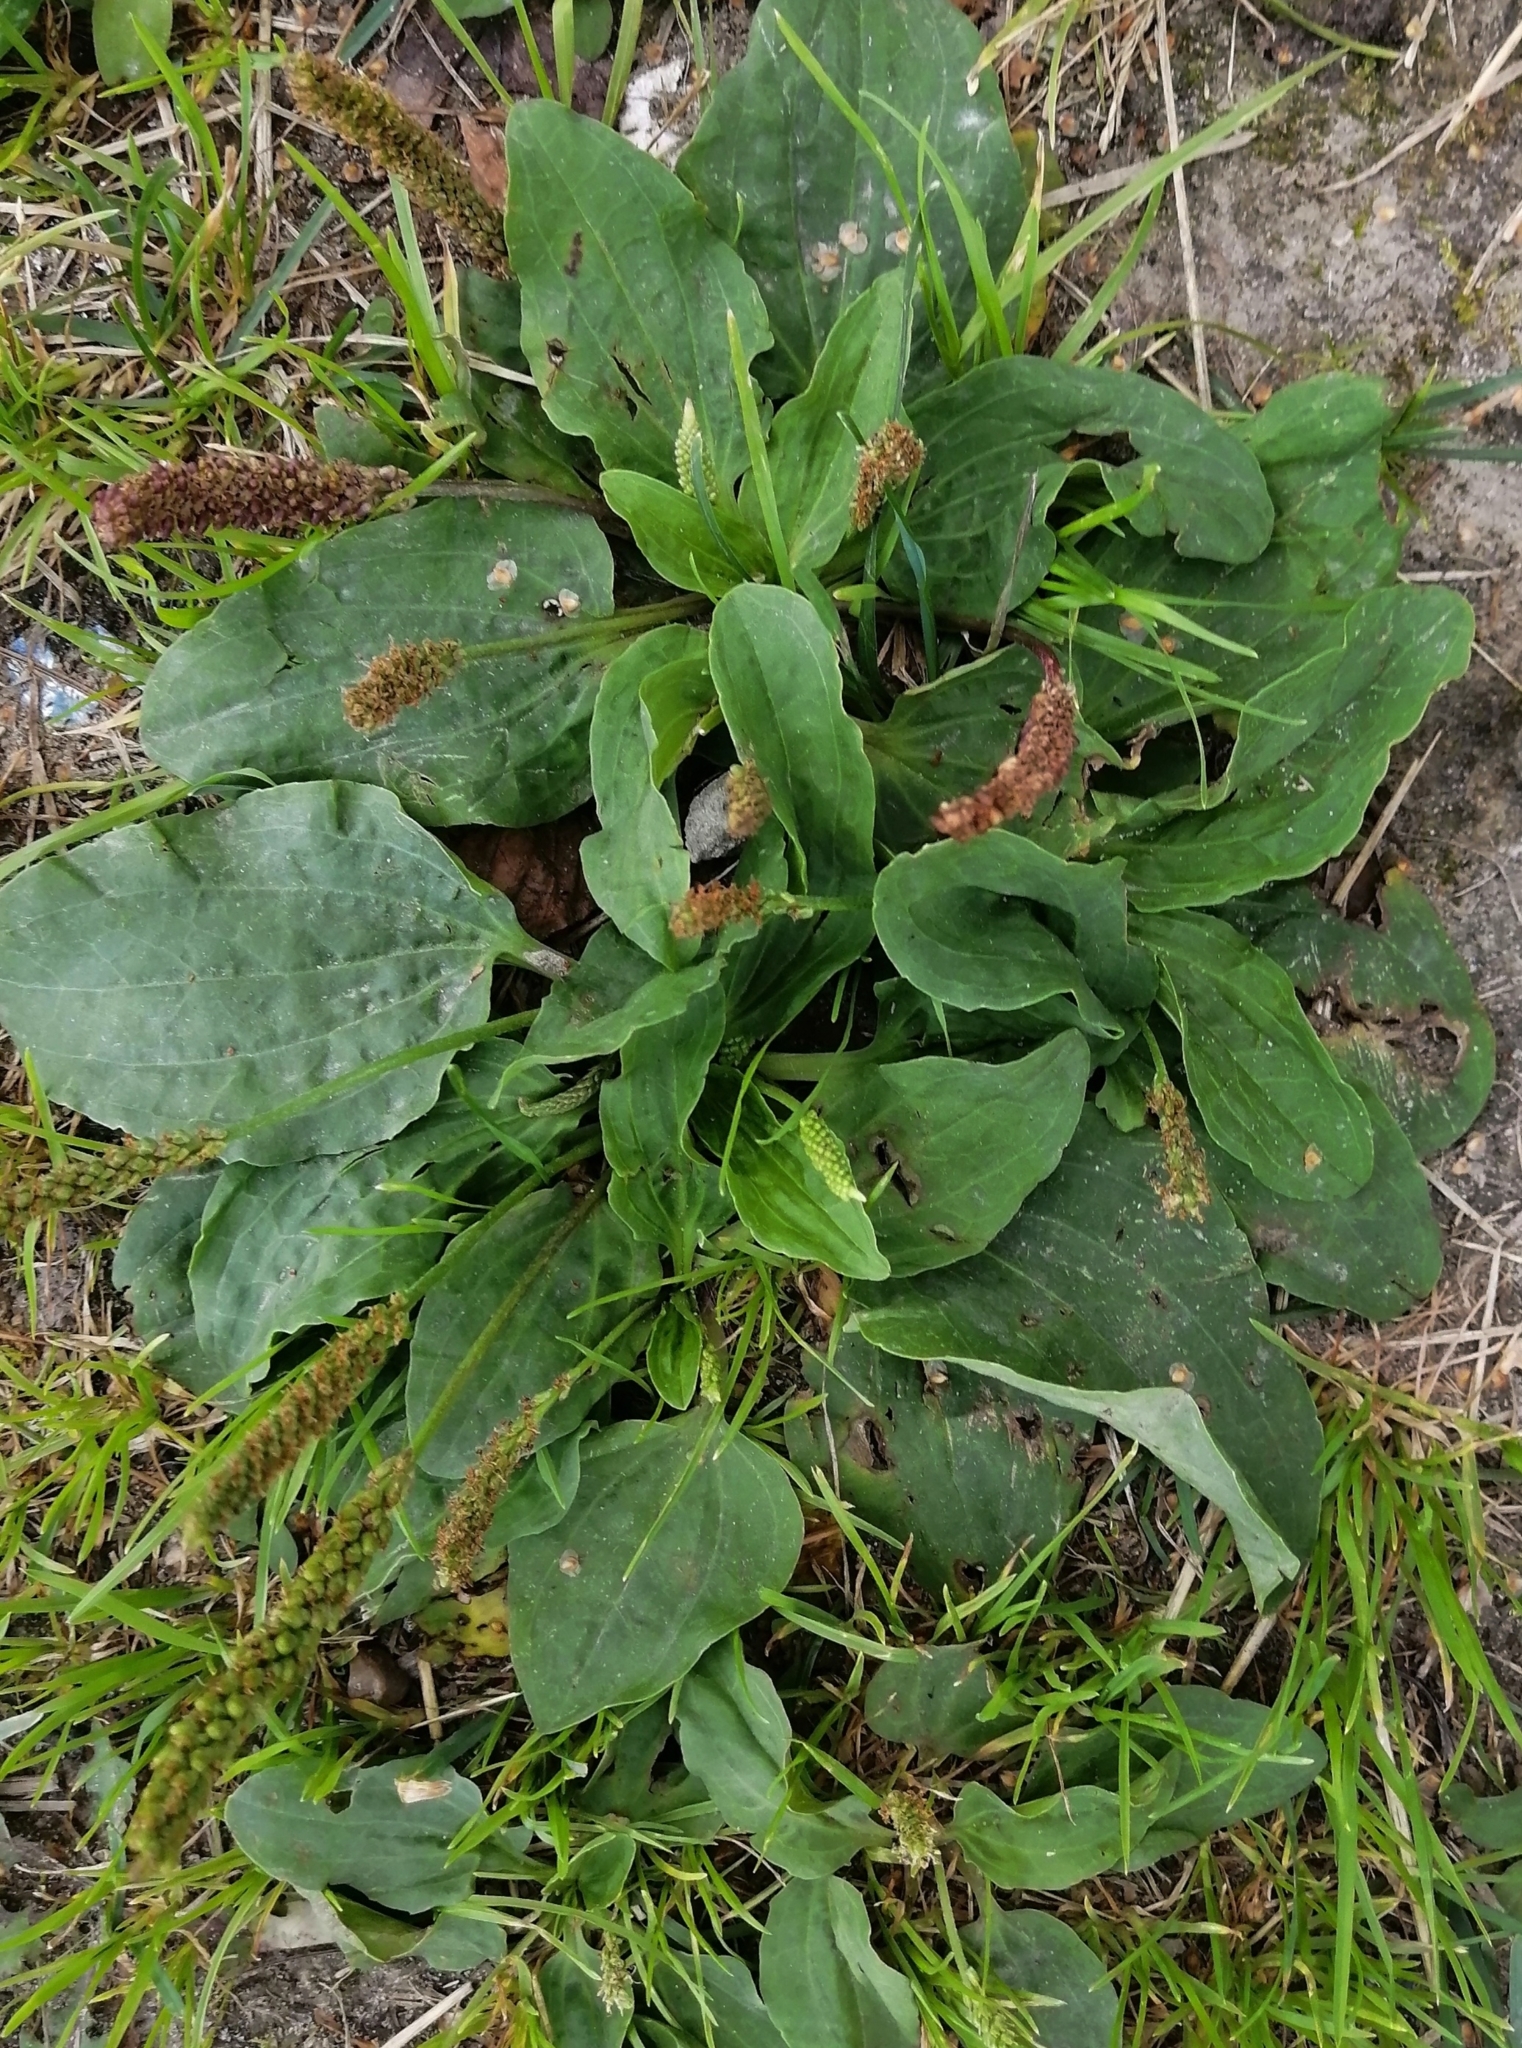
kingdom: Plantae
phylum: Tracheophyta
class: Magnoliopsida
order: Lamiales
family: Plantaginaceae
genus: Plantago
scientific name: Plantago major
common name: Common plantain
